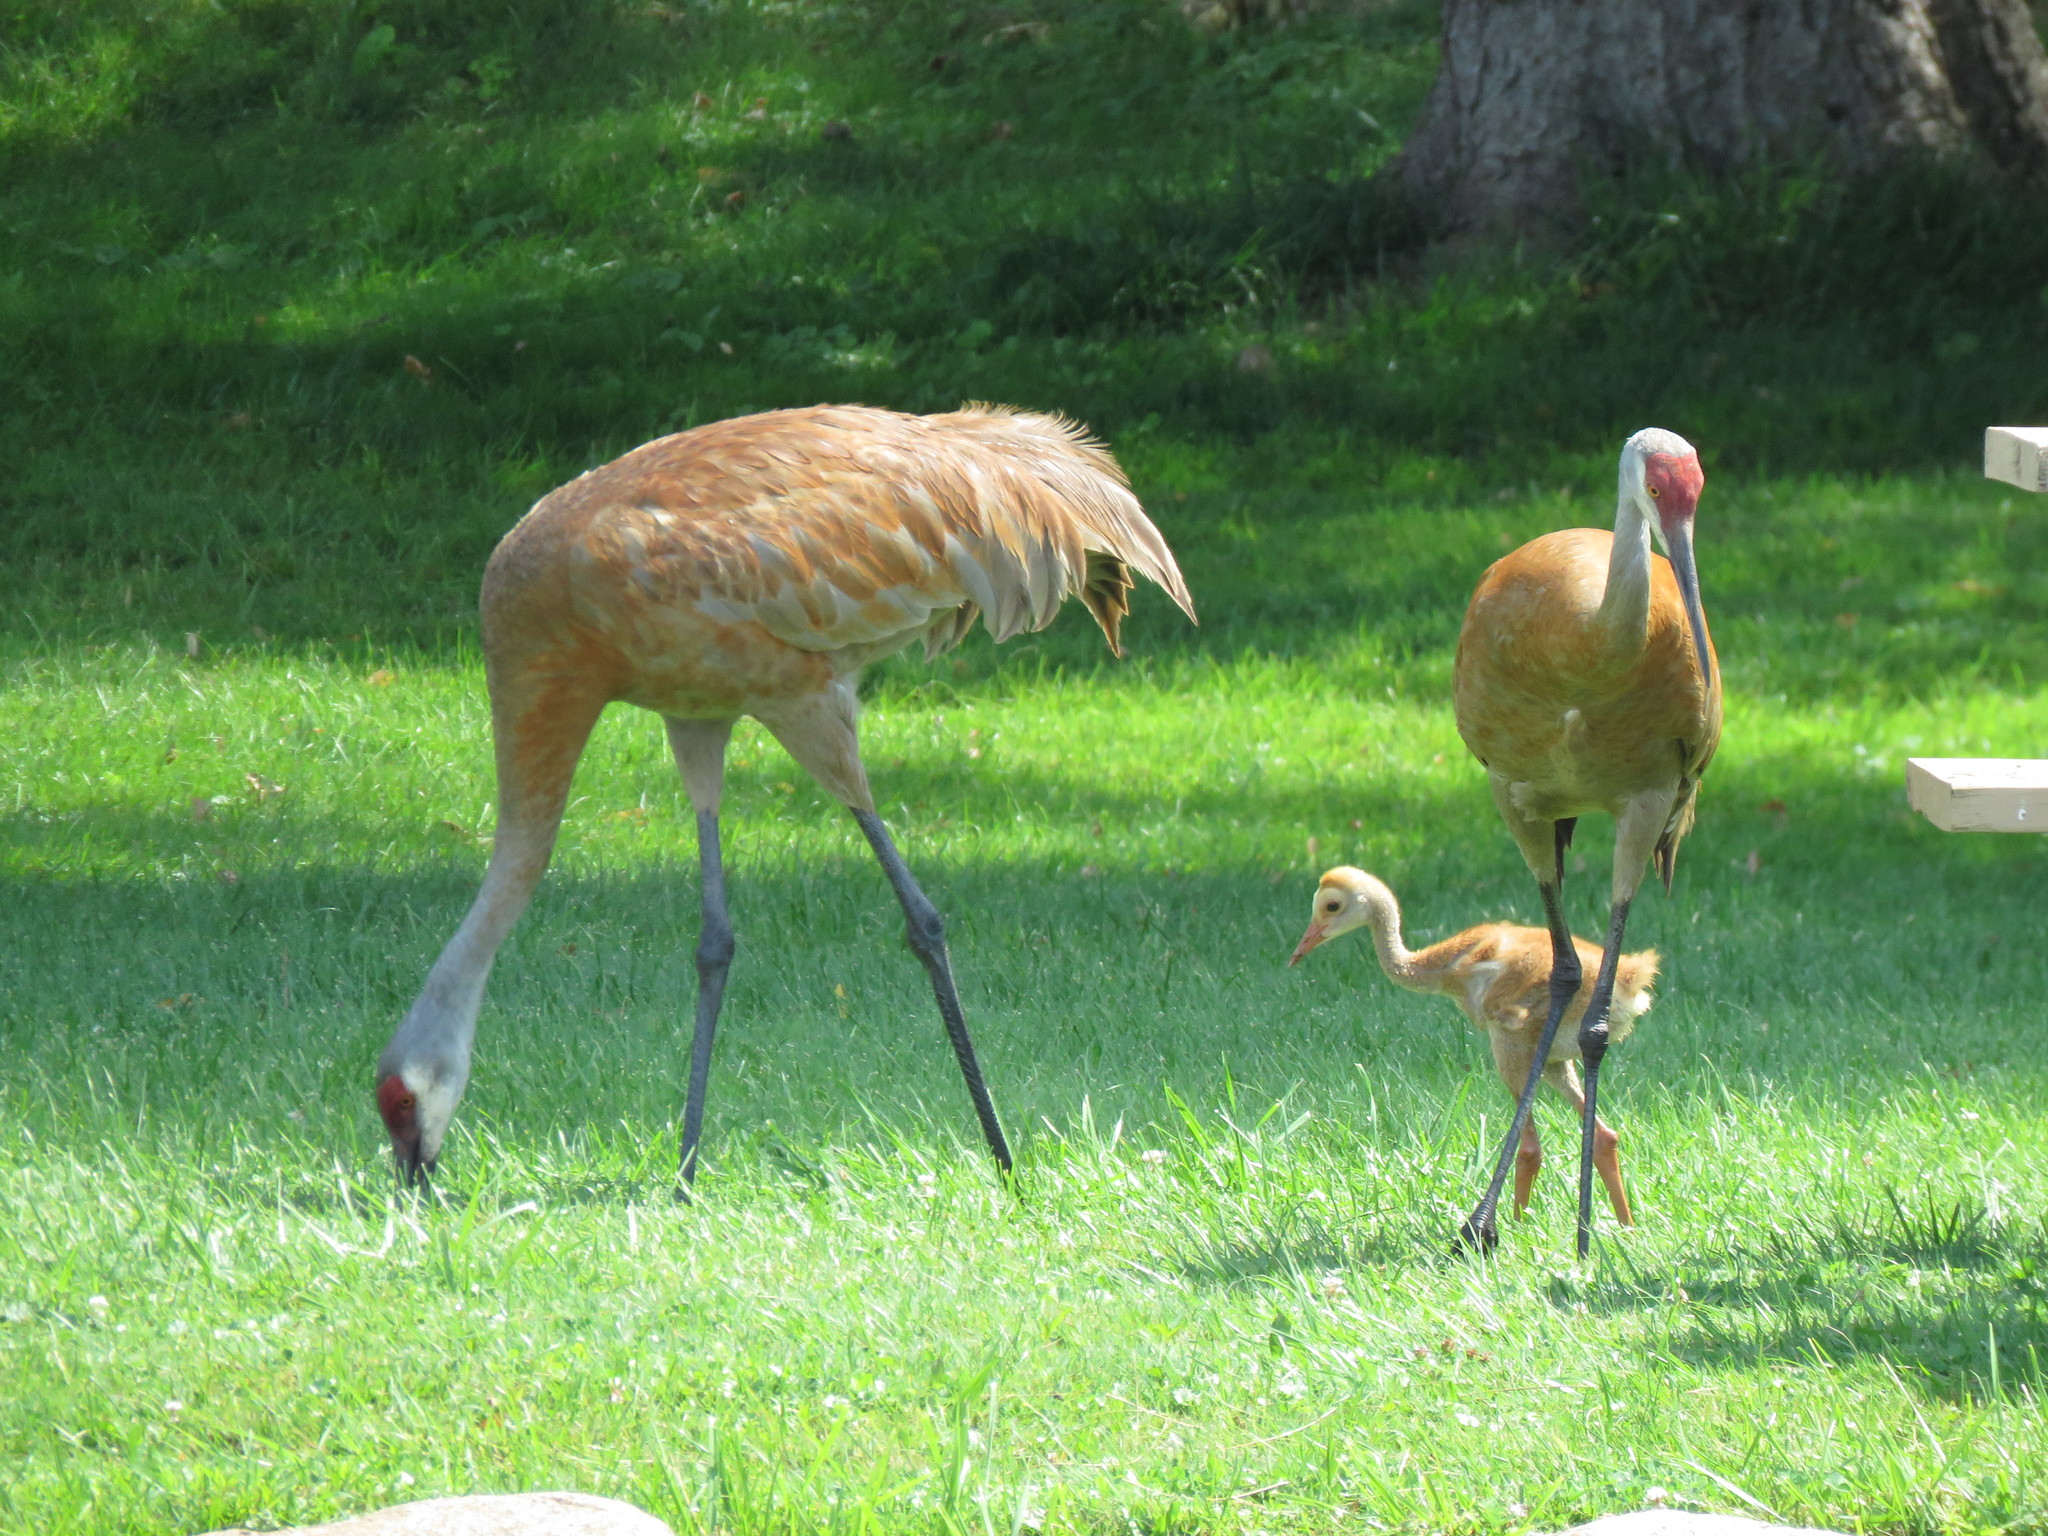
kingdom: Animalia
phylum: Chordata
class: Aves
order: Gruiformes
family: Gruidae
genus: Grus
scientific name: Grus canadensis
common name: Sandhill crane
